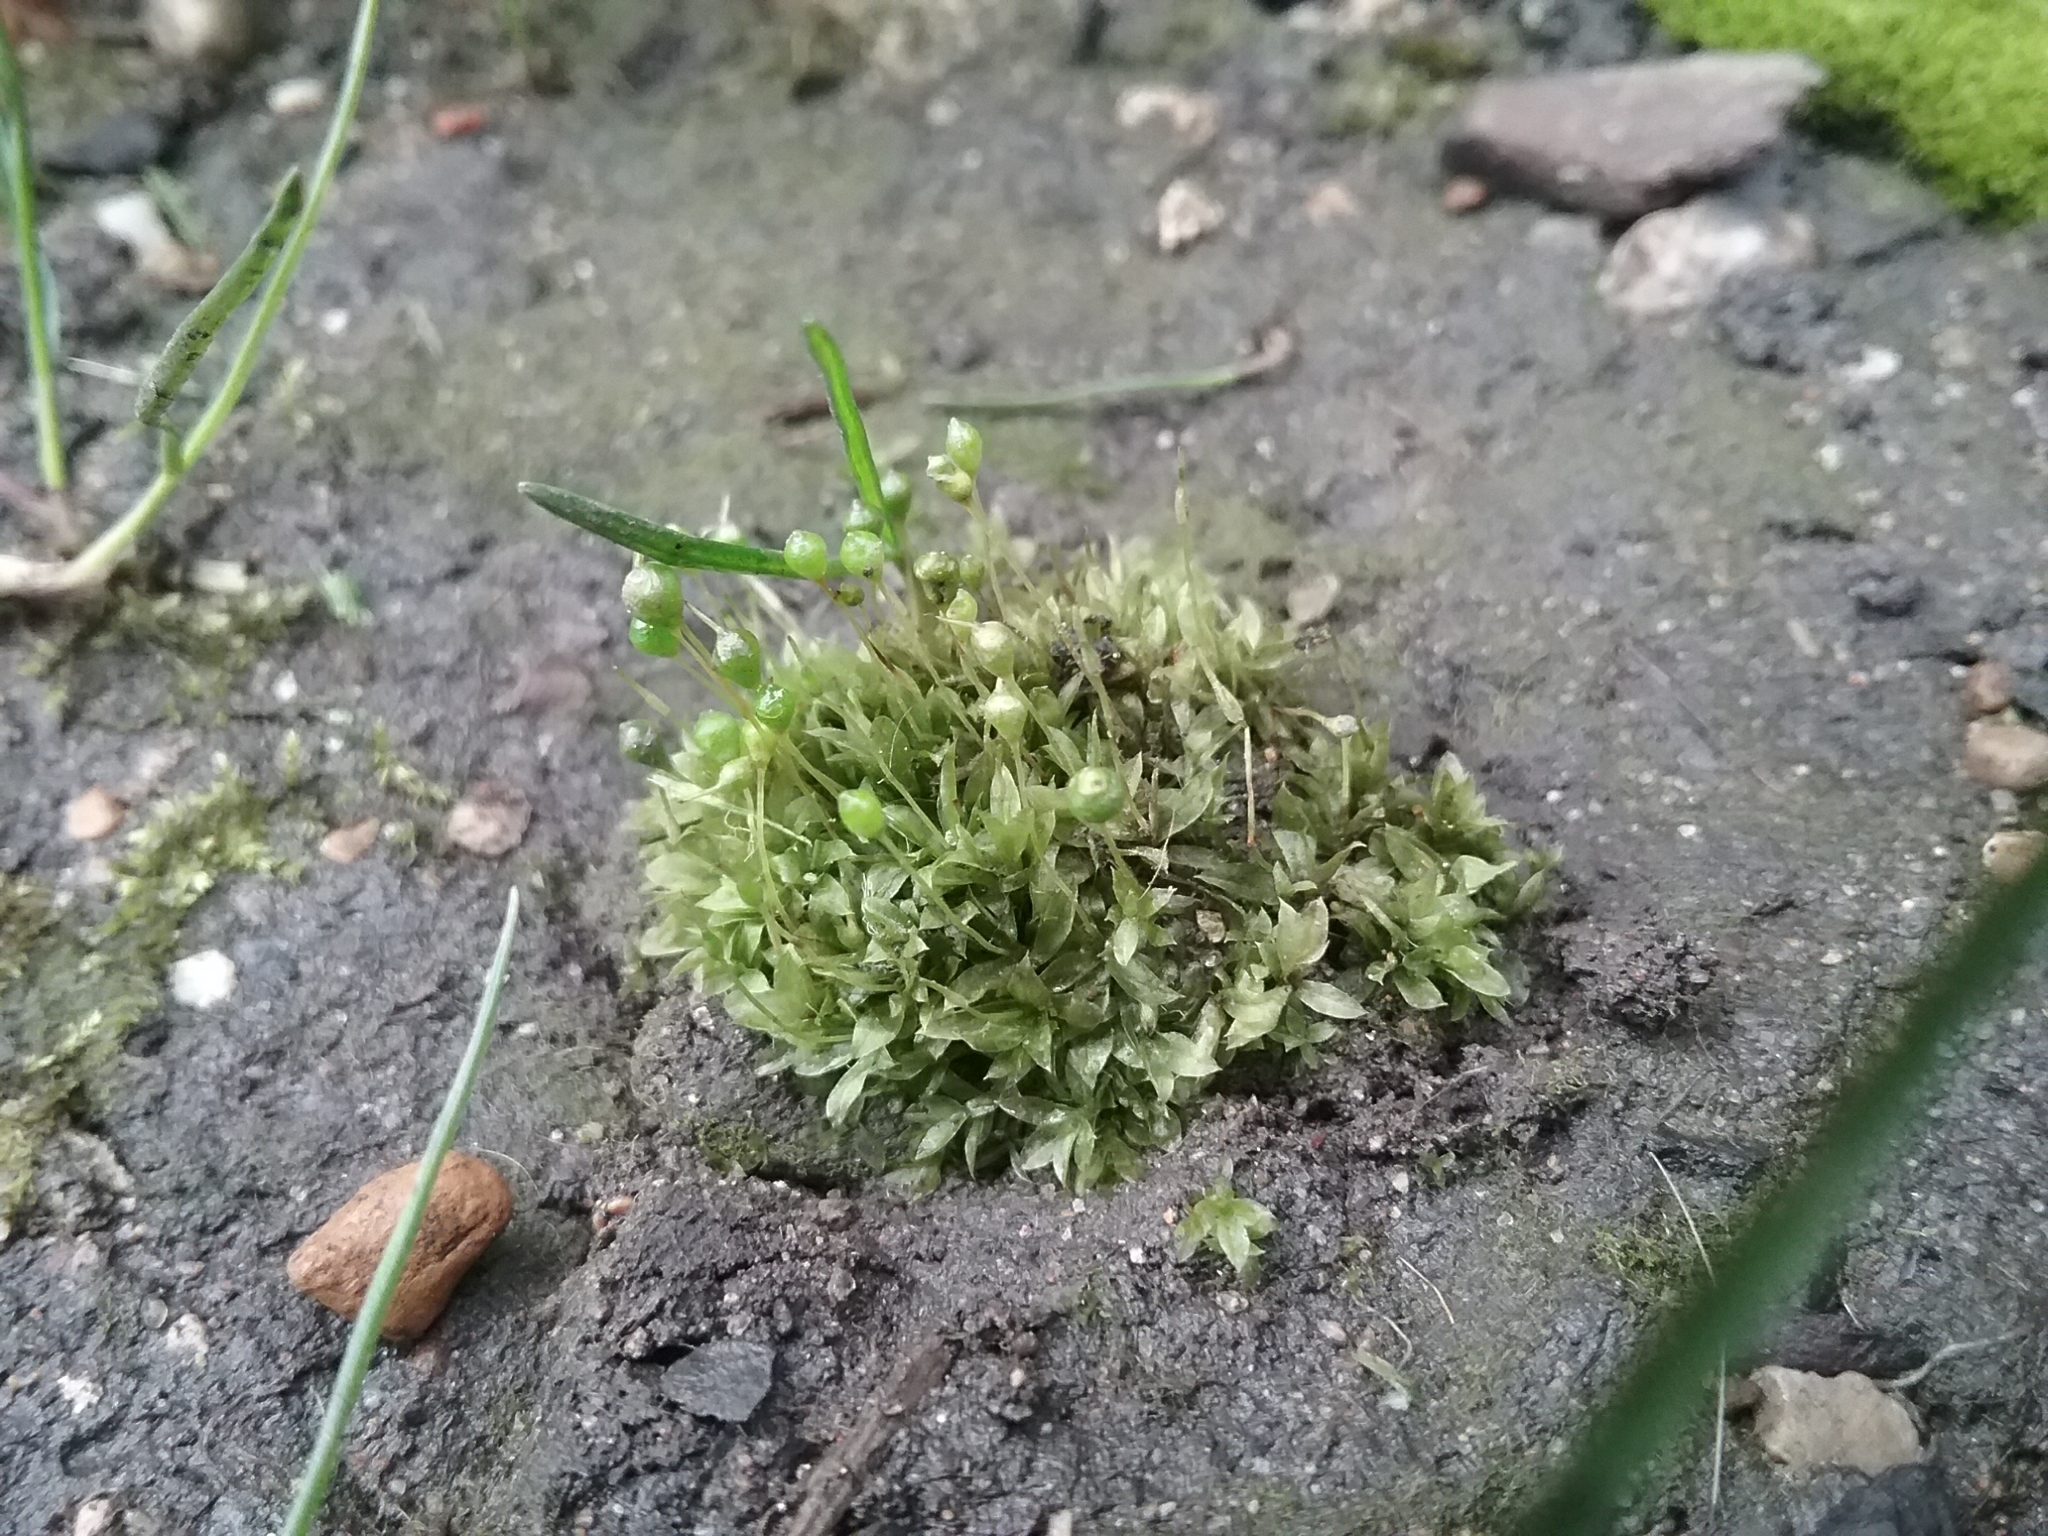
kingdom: Plantae
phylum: Bryophyta
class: Bryopsida
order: Funariales
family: Funariaceae
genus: Physcomitrium
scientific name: Physcomitrium pyriforme
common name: Common bladder-moss
